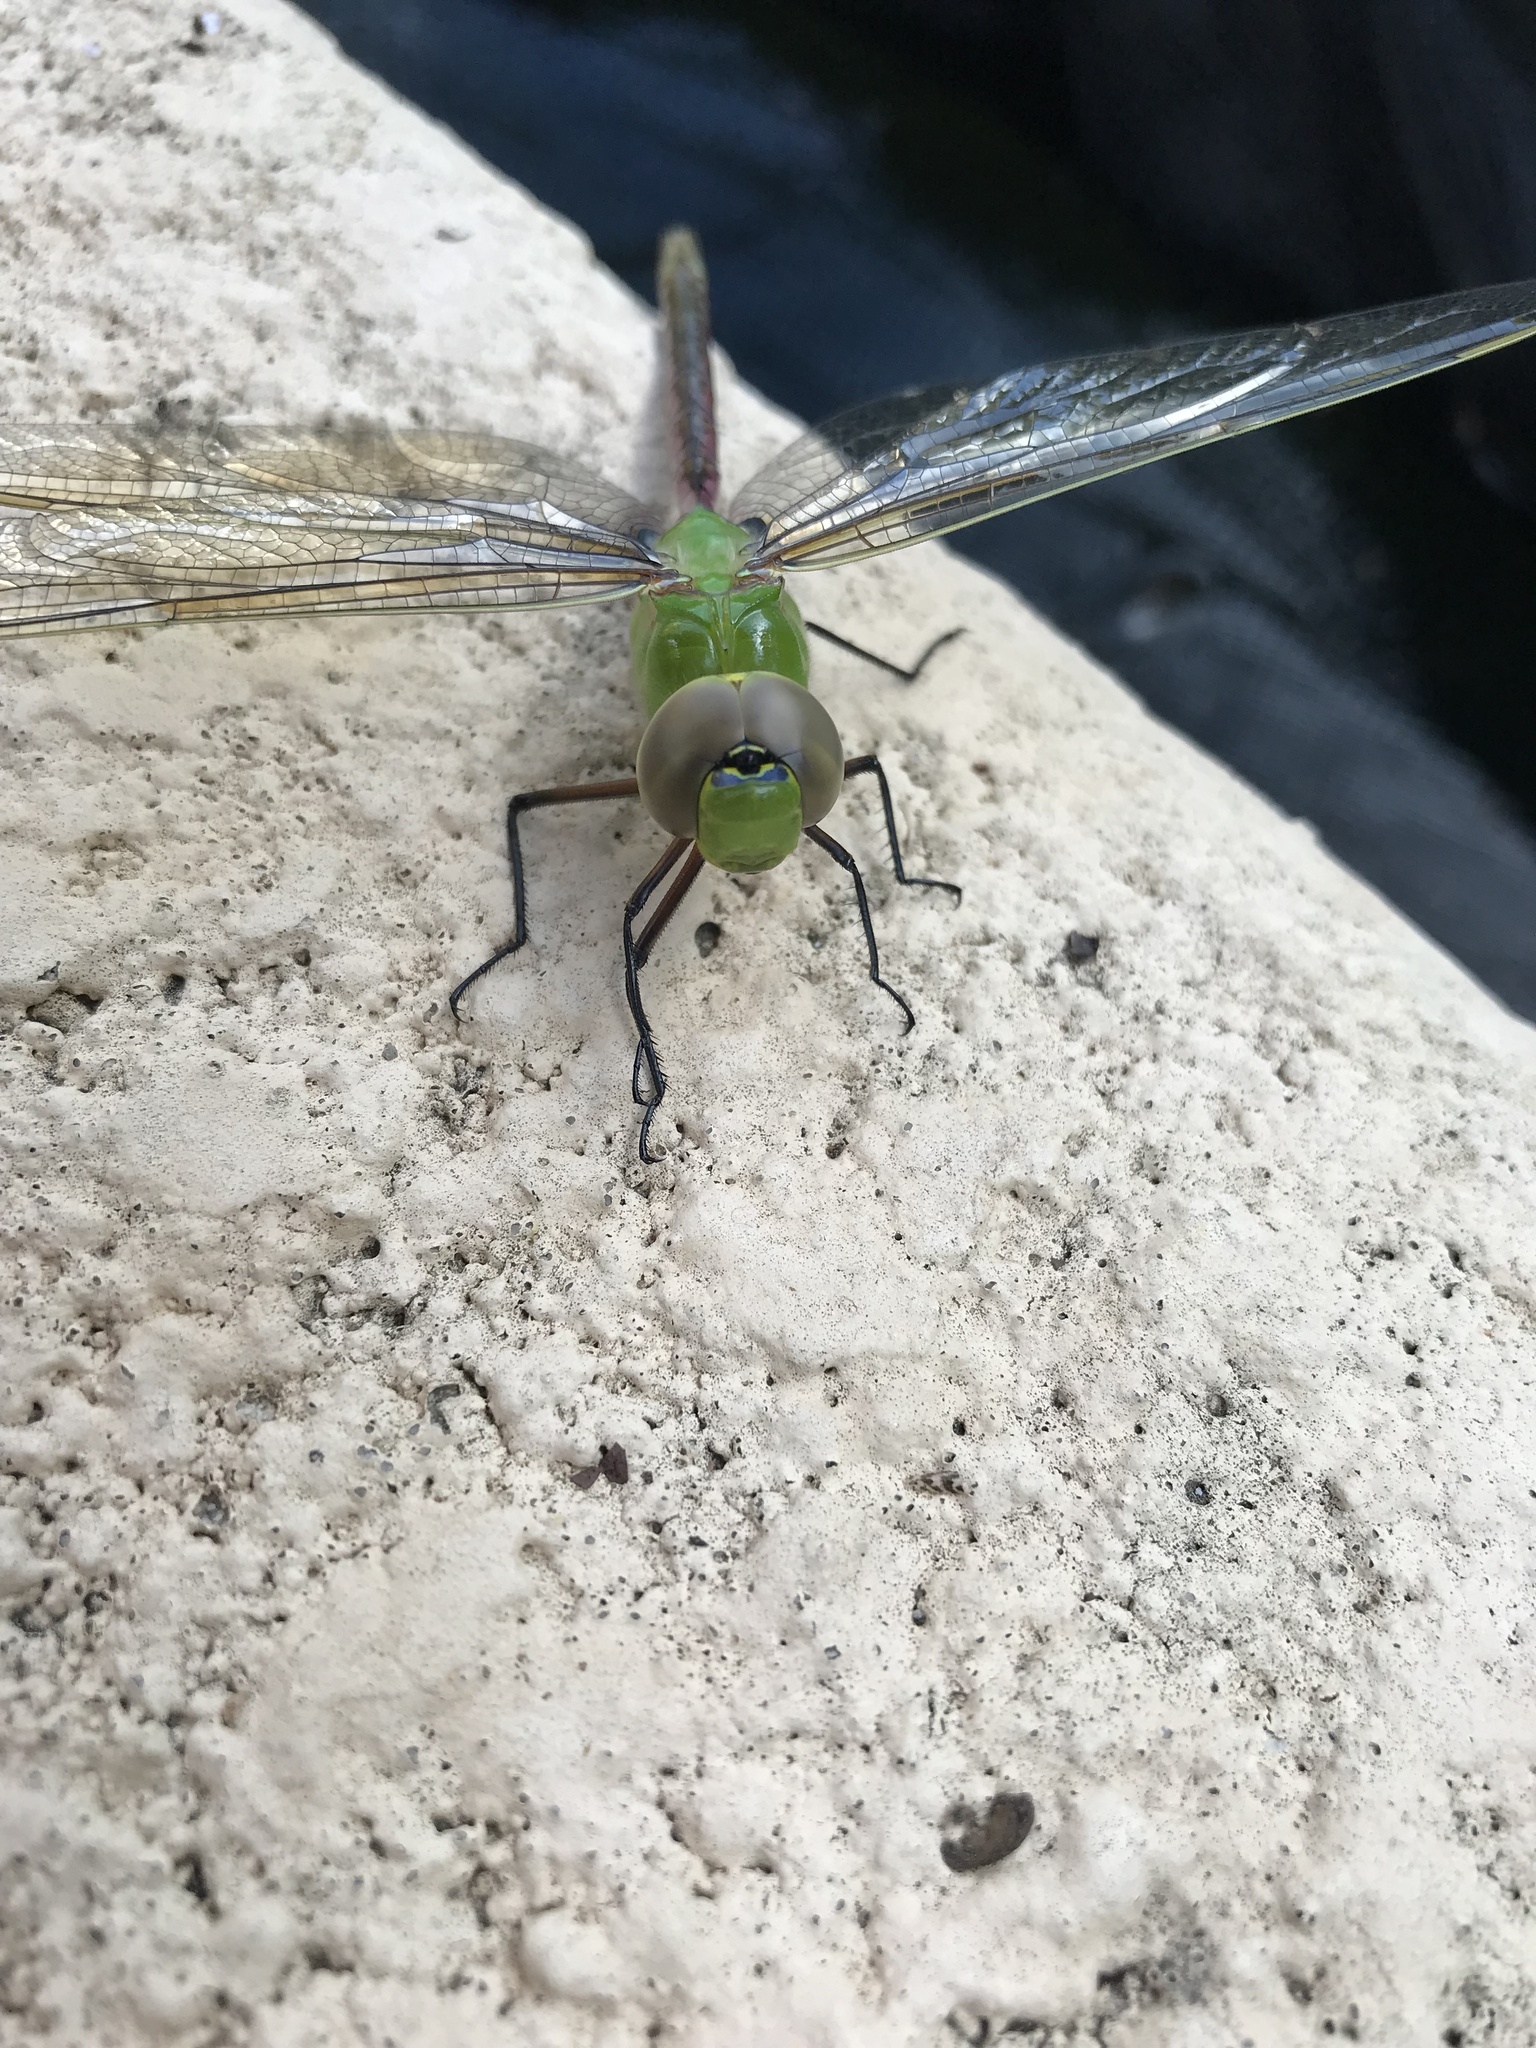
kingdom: Animalia
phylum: Arthropoda
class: Insecta
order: Odonata
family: Aeshnidae
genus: Anax
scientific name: Anax junius
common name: Common green darner
